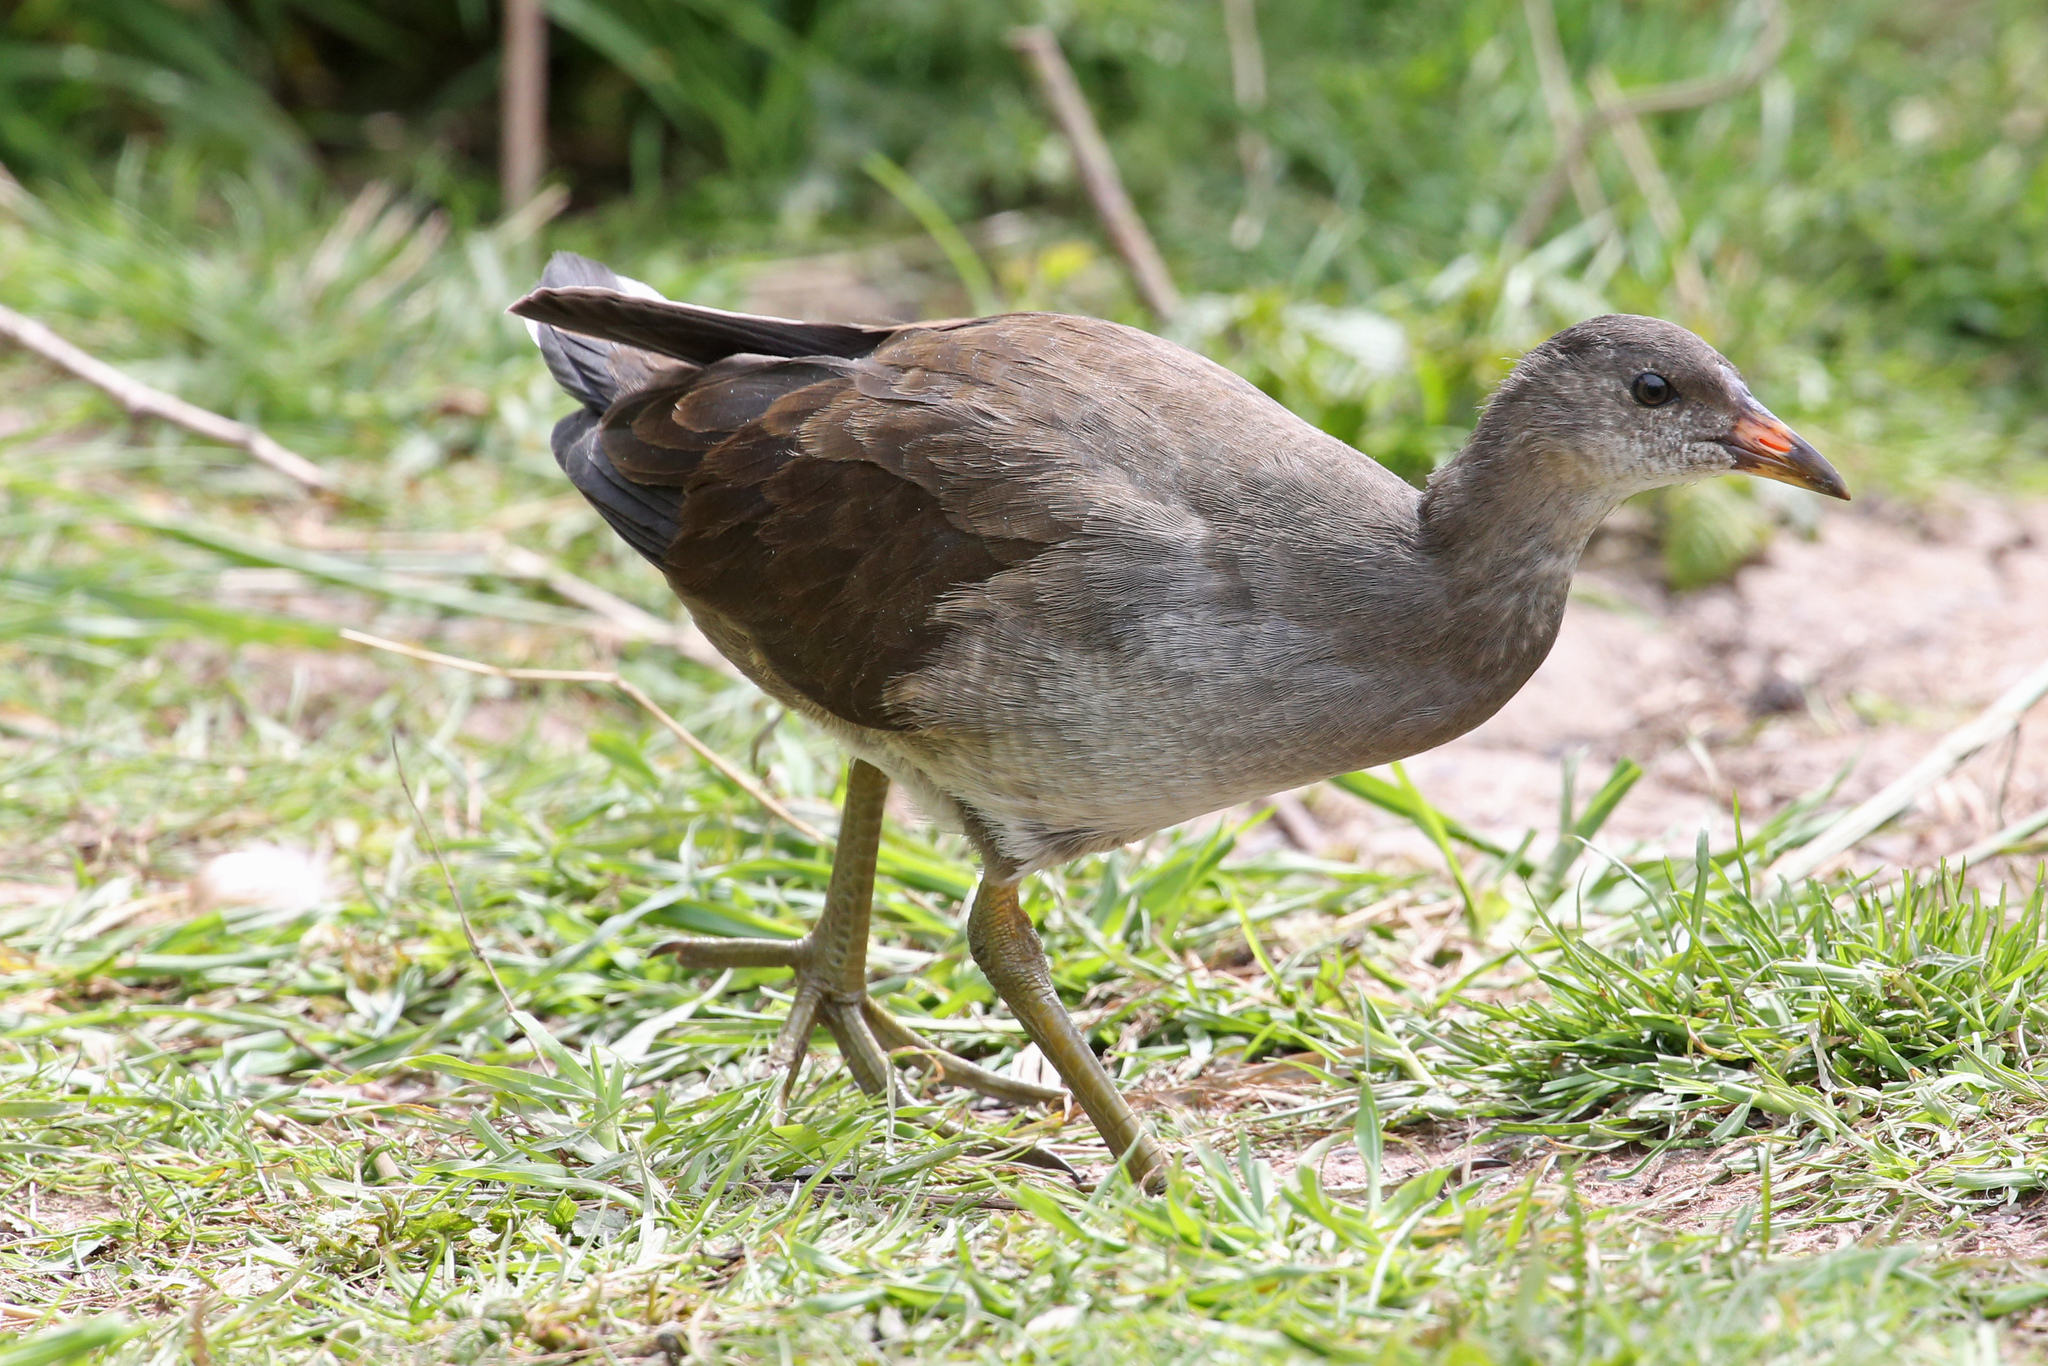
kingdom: Animalia
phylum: Chordata
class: Aves
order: Gruiformes
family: Rallidae
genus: Gallinula
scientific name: Gallinula chloropus
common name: Common moorhen
